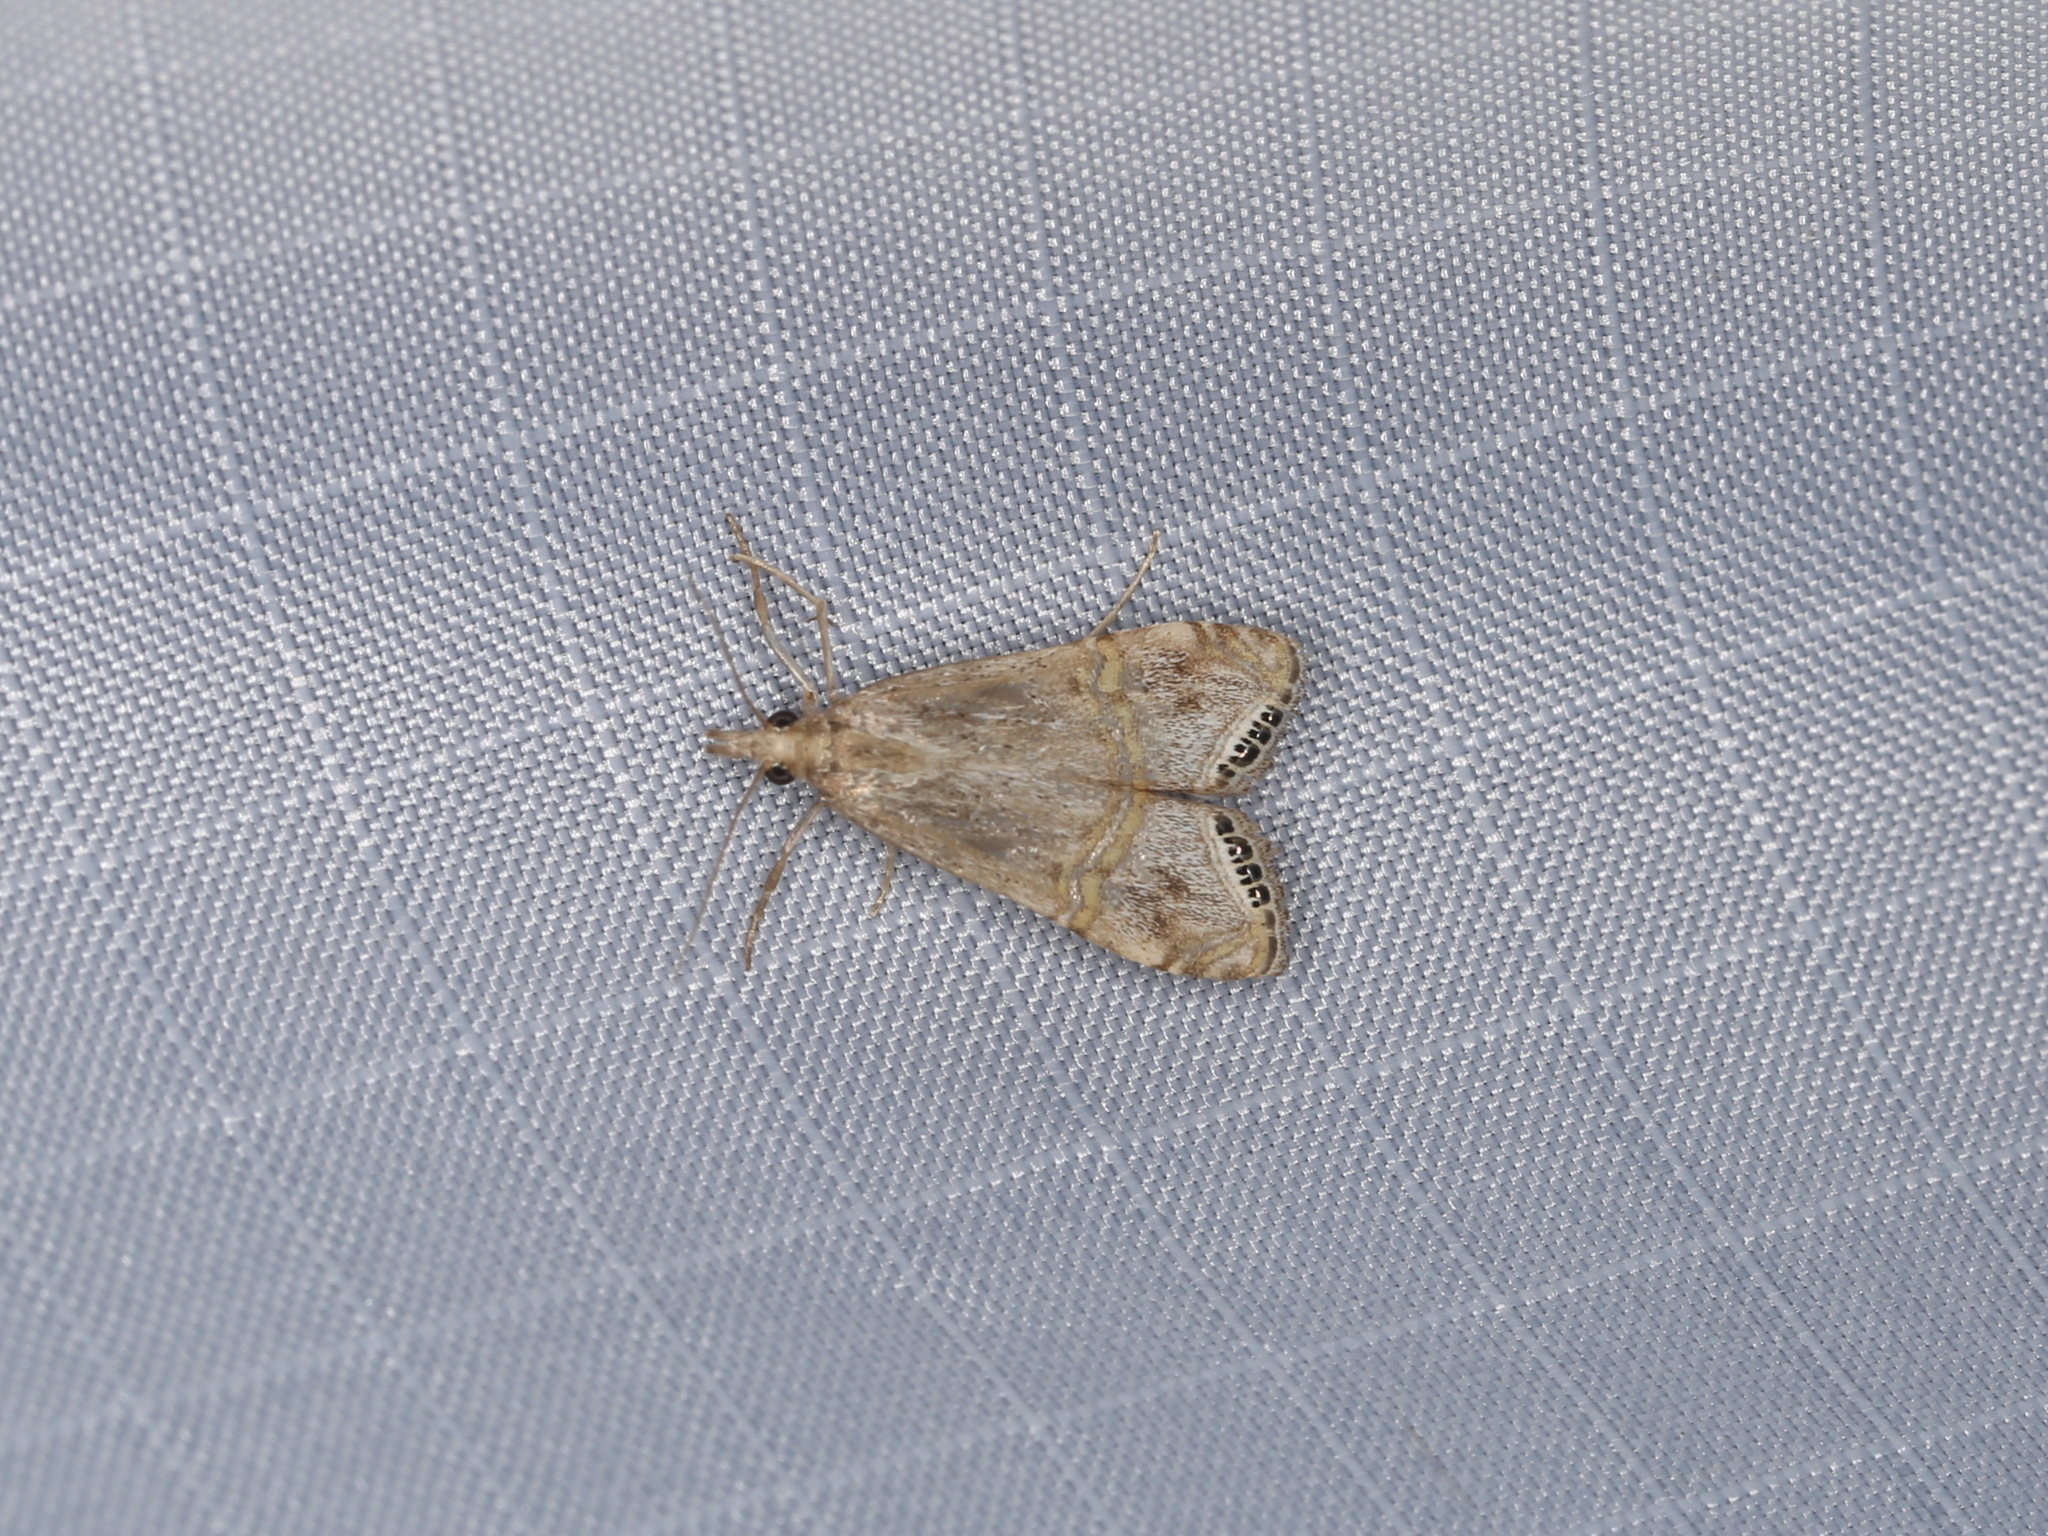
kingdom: Animalia
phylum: Arthropoda
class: Insecta
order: Lepidoptera
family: Crambidae
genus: Euchromius
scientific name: Euchromius ocellea
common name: Necklace veneer moth
